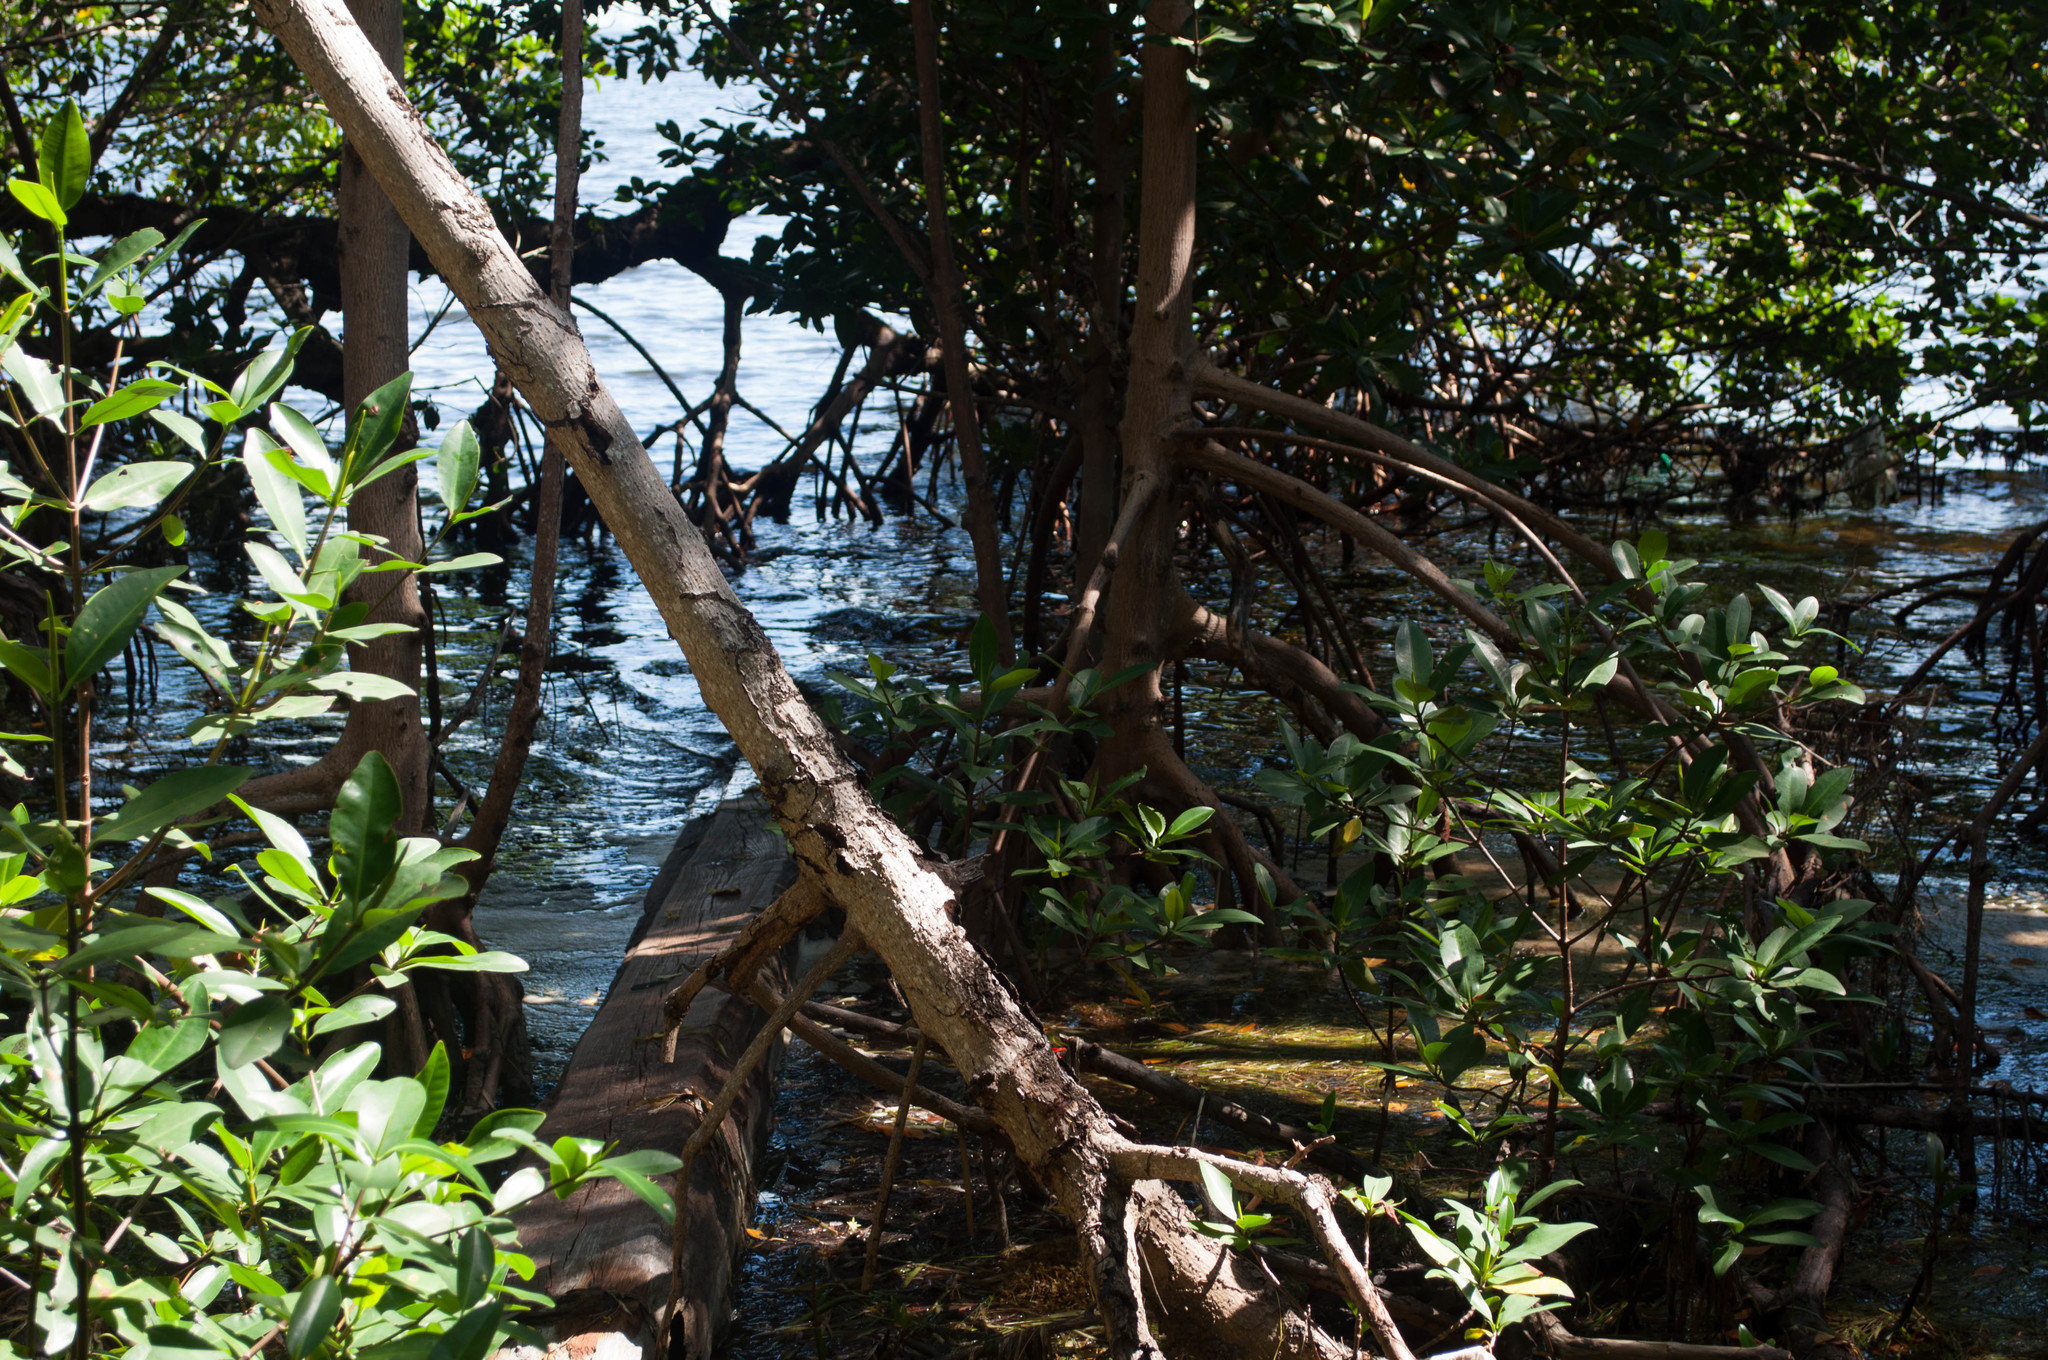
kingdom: Plantae
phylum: Tracheophyta
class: Magnoliopsida
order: Malpighiales
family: Rhizophoraceae
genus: Rhizophora
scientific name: Rhizophora mangle
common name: Red mangrove
